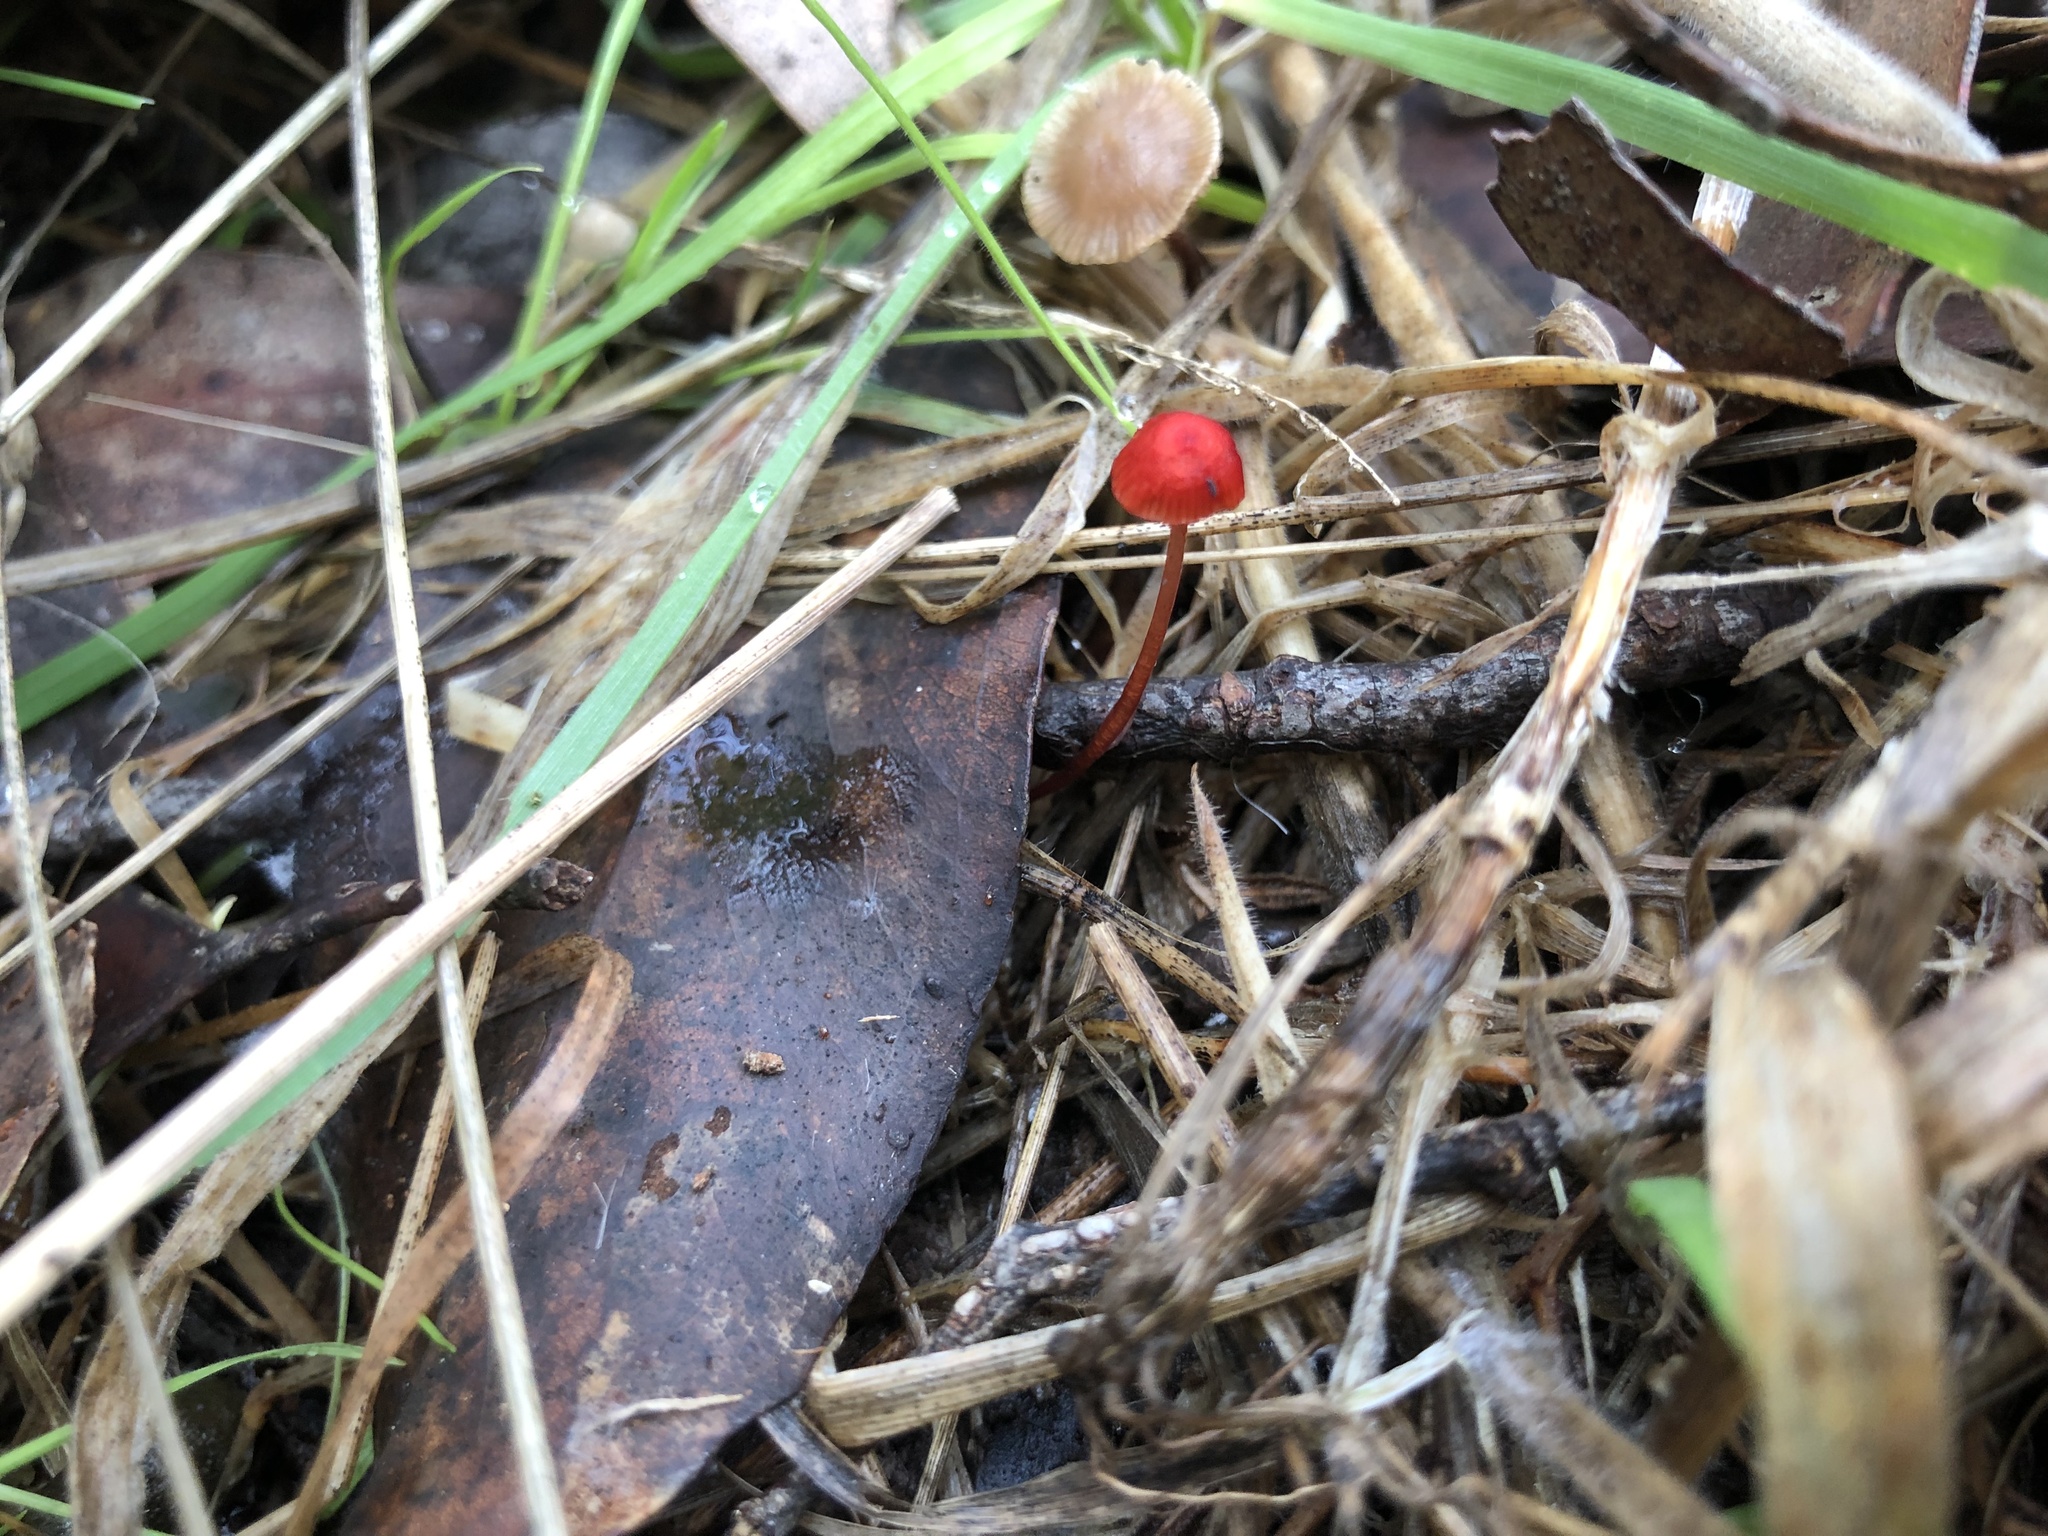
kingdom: Fungi
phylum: Basidiomycota
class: Agaricomycetes
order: Agaricales
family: Mycenaceae
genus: Cruentomycena
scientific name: Cruentomycena viscidocruenta
